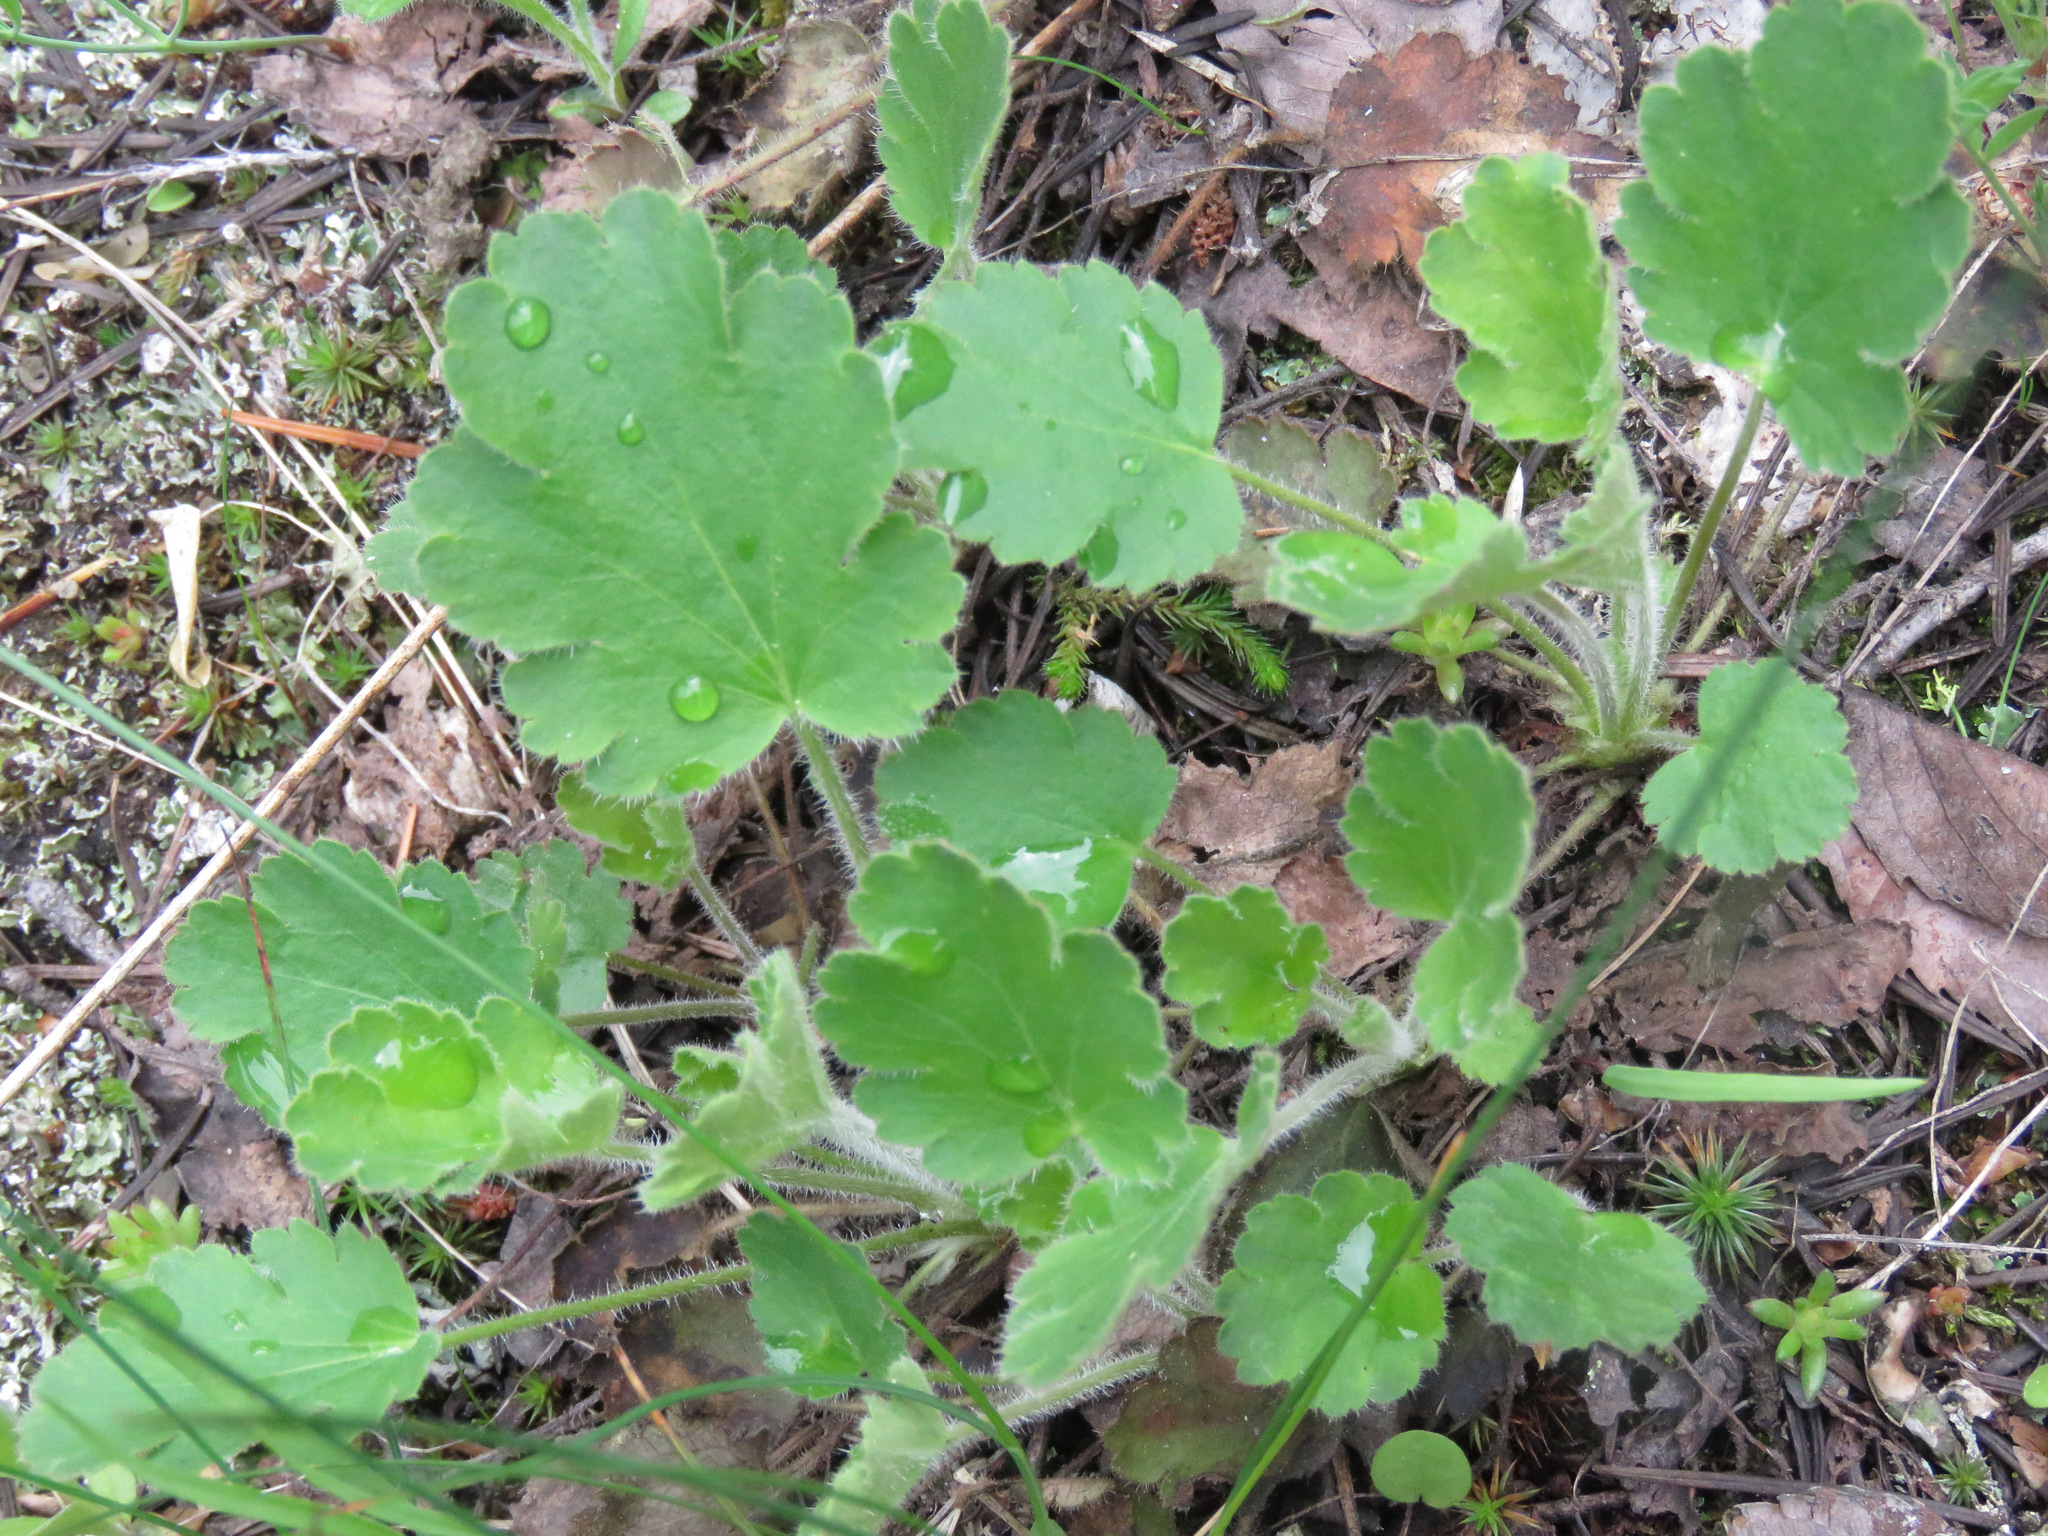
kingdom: Plantae
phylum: Tracheophyta
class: Magnoliopsida
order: Saxifragales
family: Saxifragaceae
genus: Heuchera
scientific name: Heuchera cylindrica
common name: Mat alumroot
